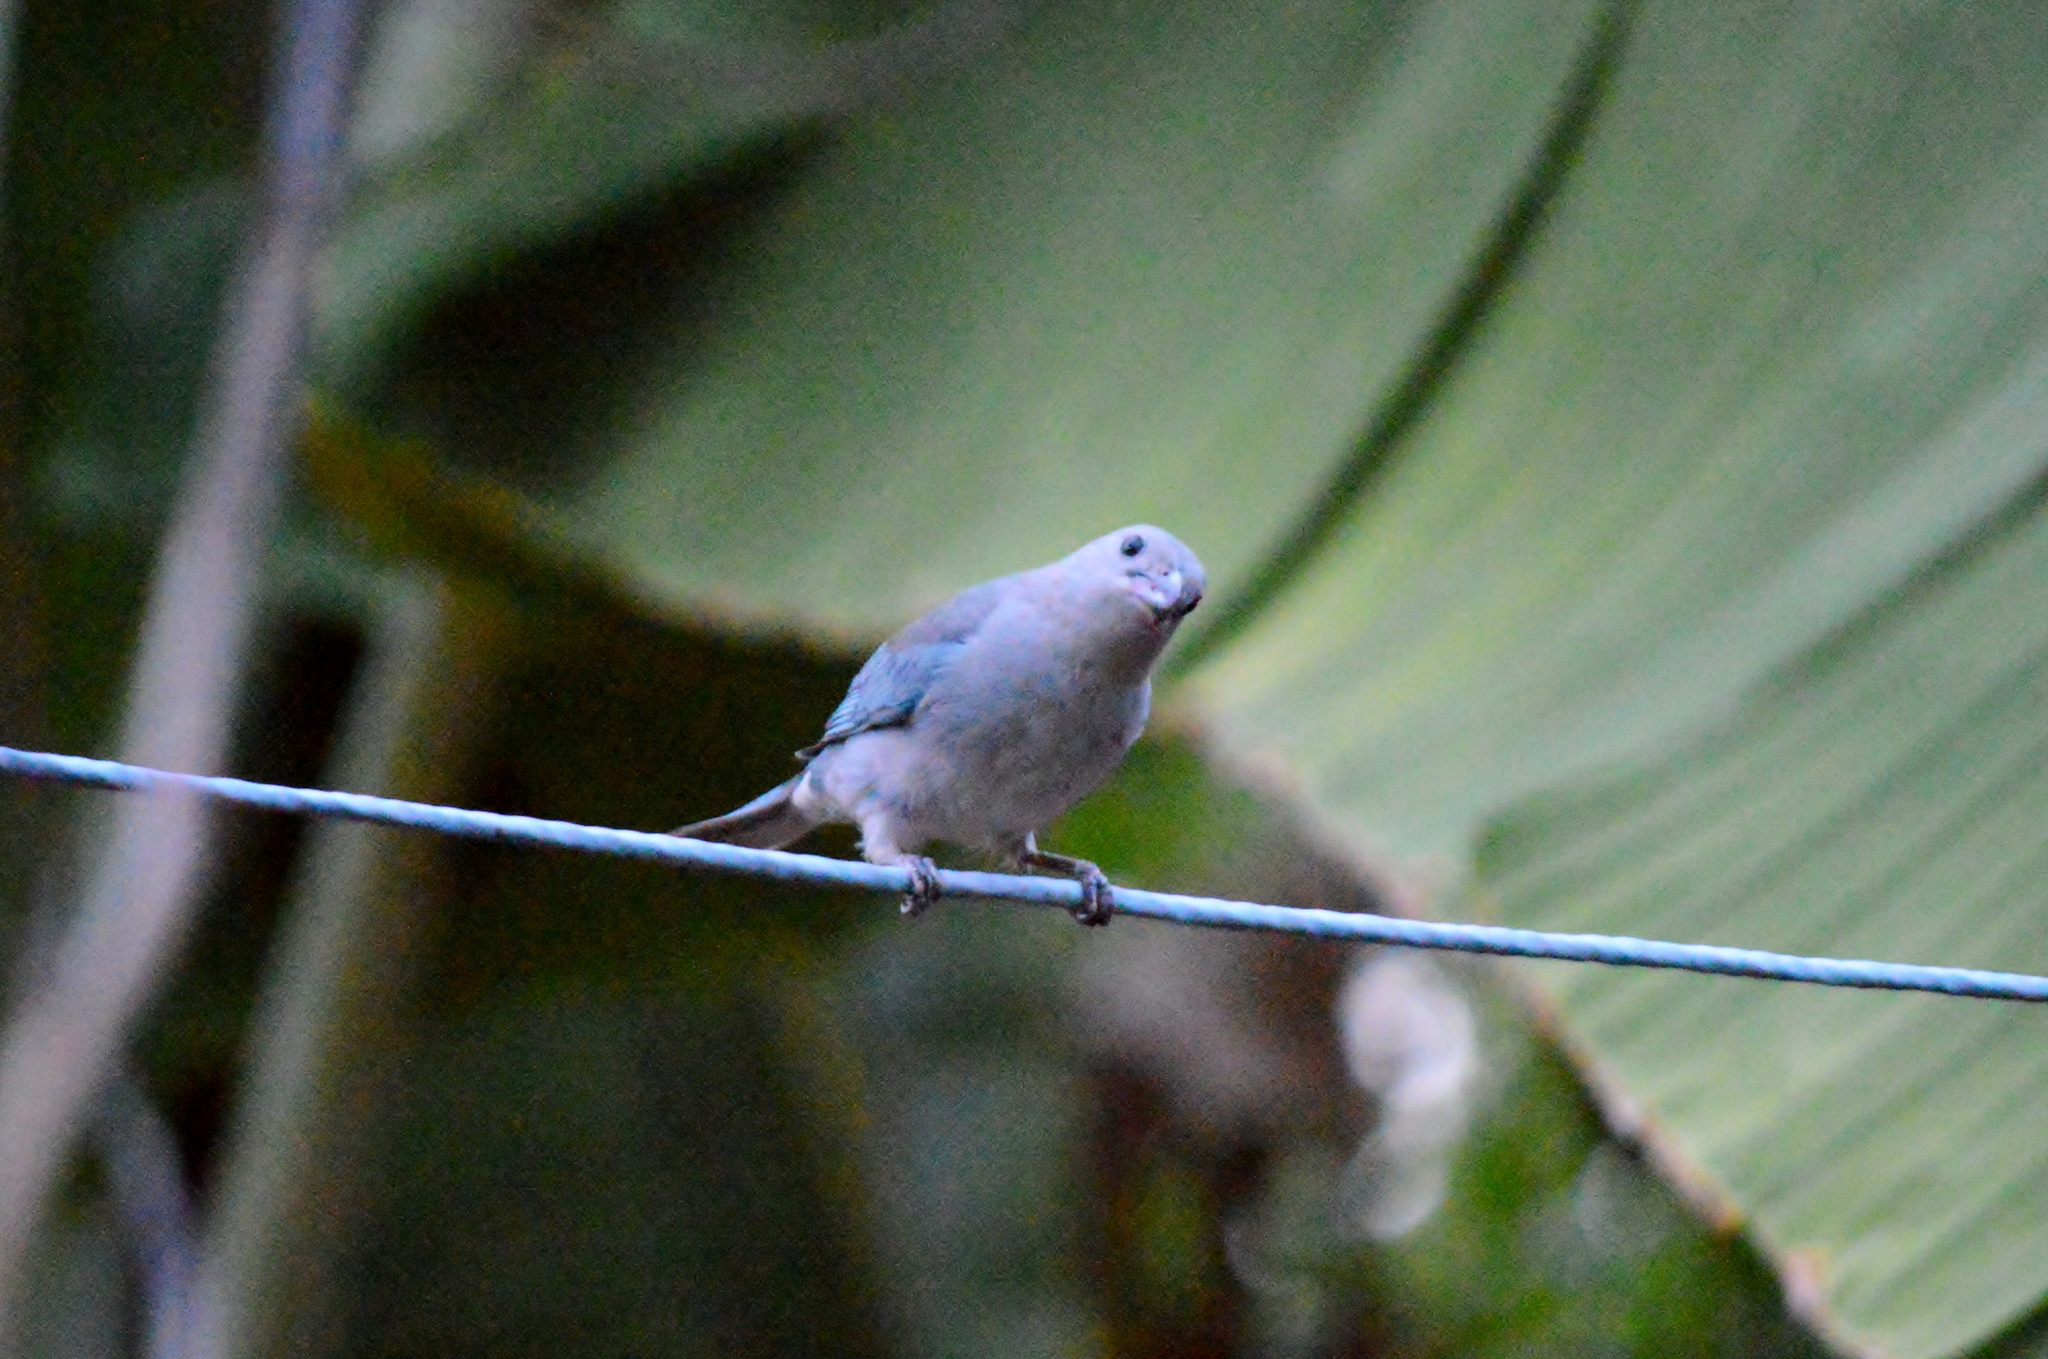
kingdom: Animalia
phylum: Chordata
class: Aves
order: Passeriformes
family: Thraupidae
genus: Thraupis
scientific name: Thraupis sayaca
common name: Sayaca tanager
